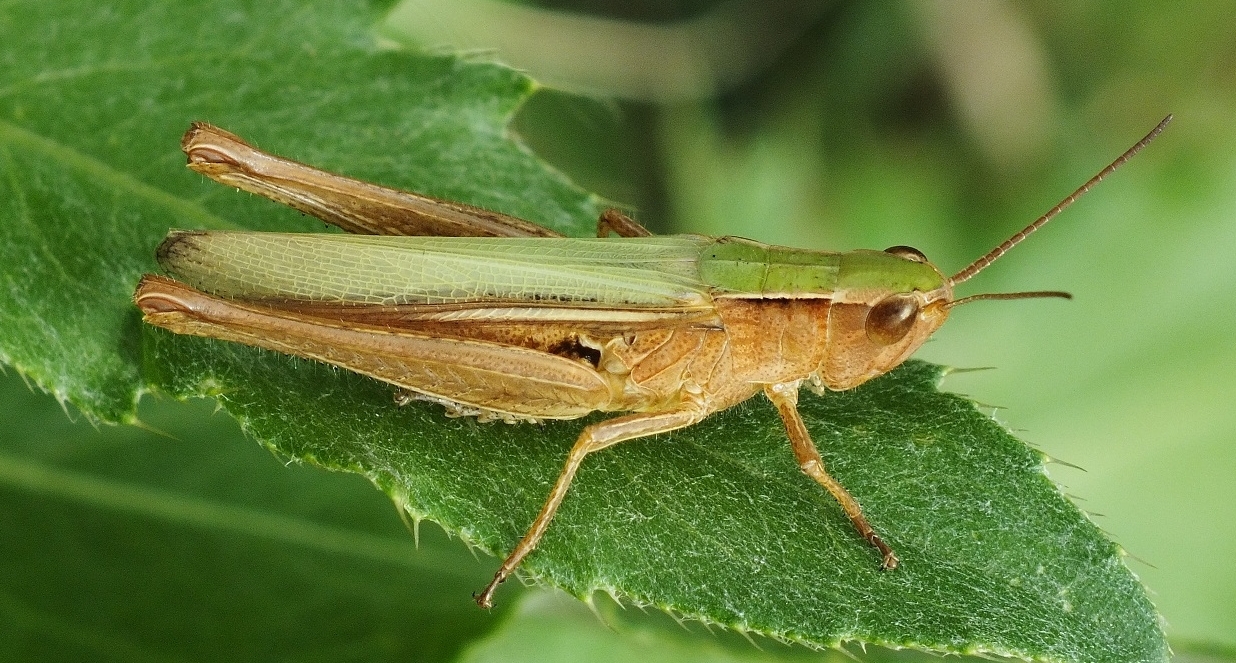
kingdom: Animalia
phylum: Arthropoda
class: Insecta
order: Orthoptera
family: Acrididae
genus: Chorthippus
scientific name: Chorthippus dichrous
